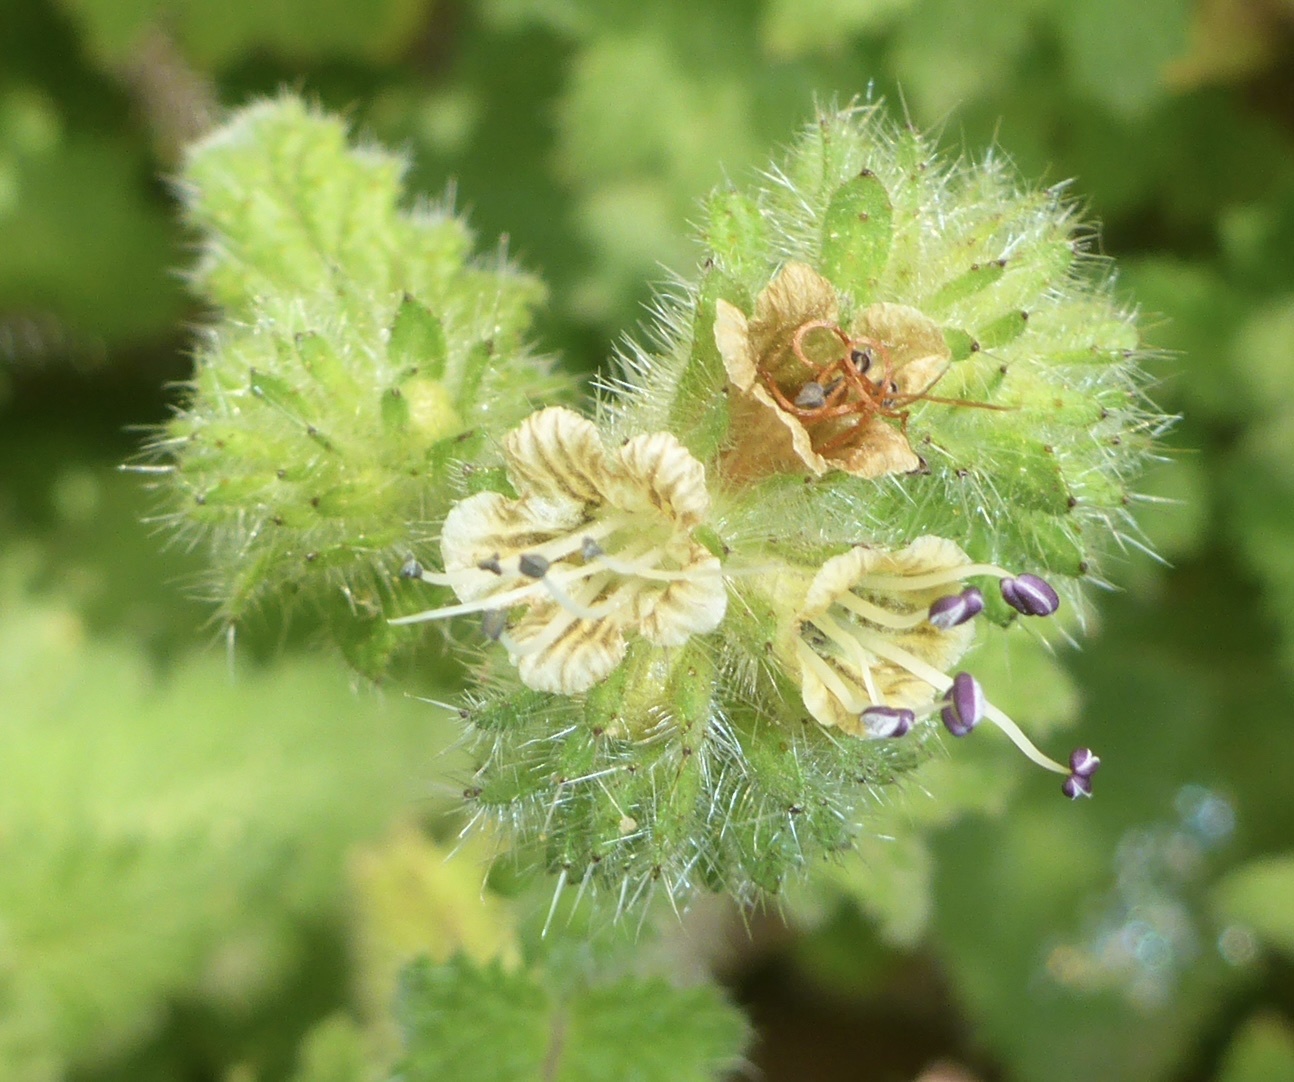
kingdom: Plantae
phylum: Tracheophyta
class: Magnoliopsida
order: Boraginales
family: Hydrophyllaceae
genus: Phacelia
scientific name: Phacelia malvifolia
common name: Mallow-leaf phacelia
